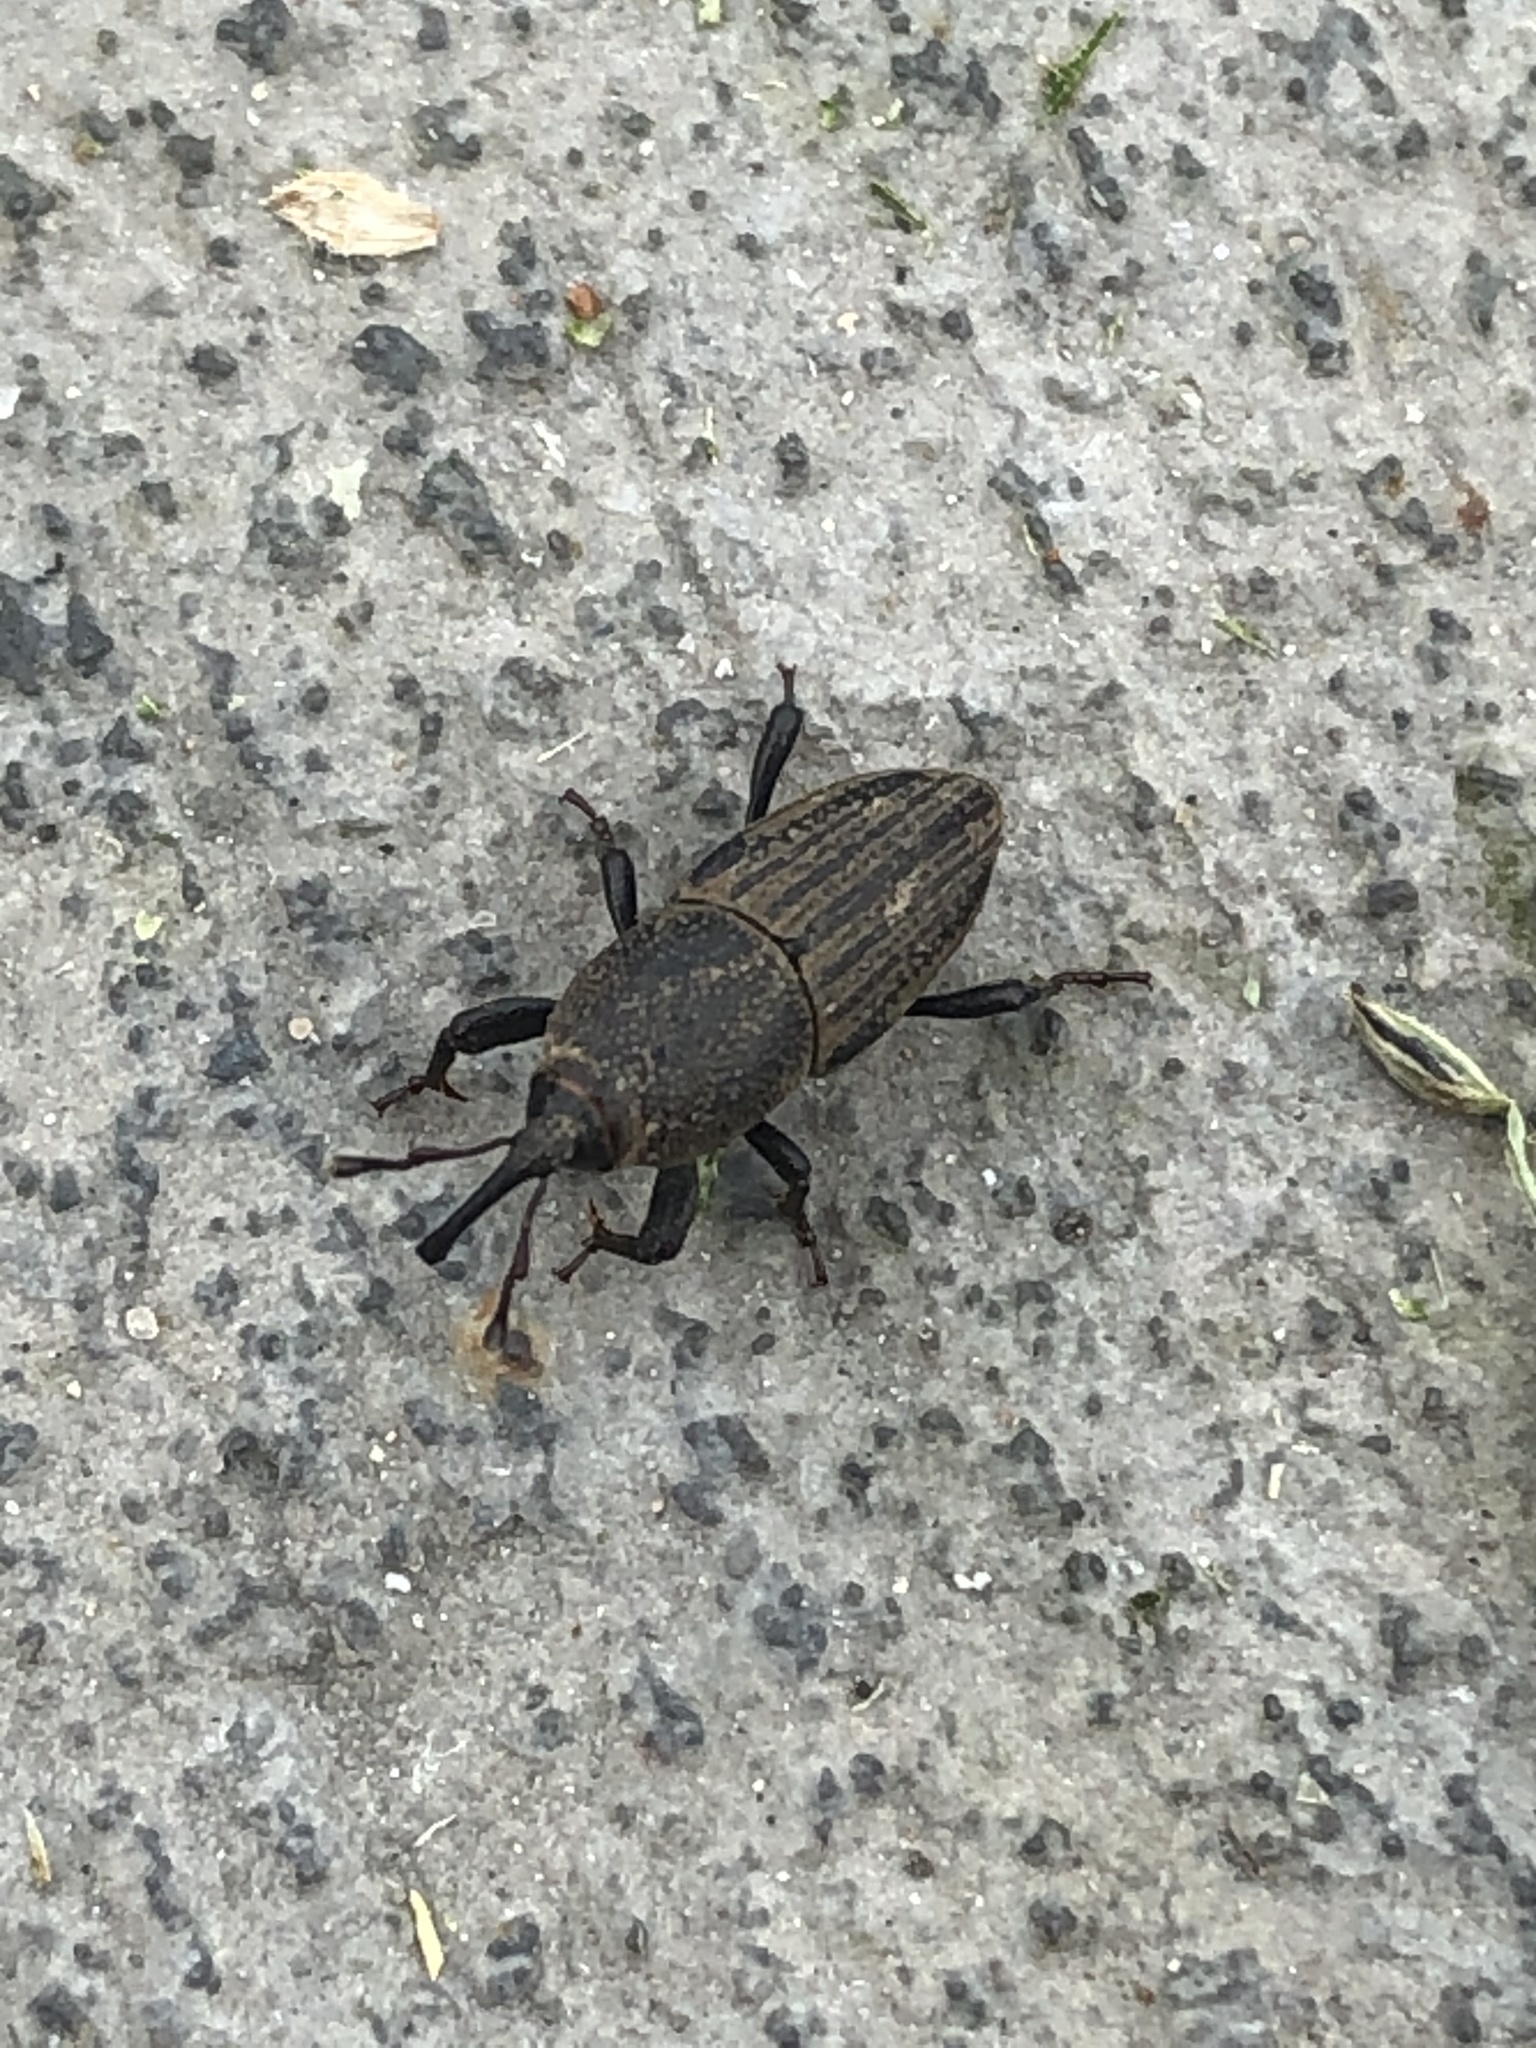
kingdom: Animalia
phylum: Arthropoda
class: Insecta
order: Coleoptera
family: Dryophthoridae
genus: Sphenophorus
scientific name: Sphenophorus interstitialis
